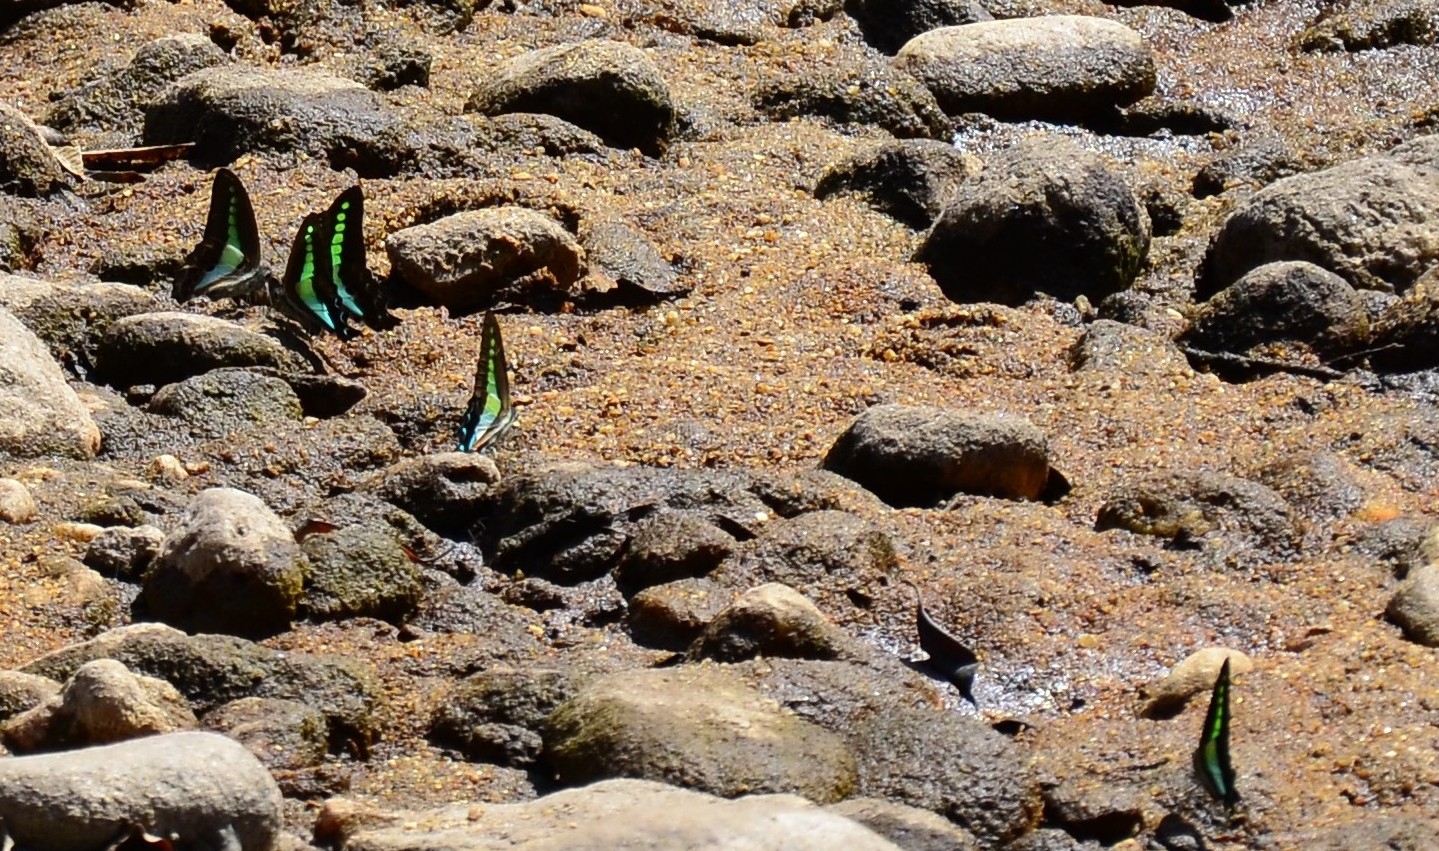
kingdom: Animalia
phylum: Arthropoda
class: Insecta
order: Lepidoptera
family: Papilionidae
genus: Graphium
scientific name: Graphium
